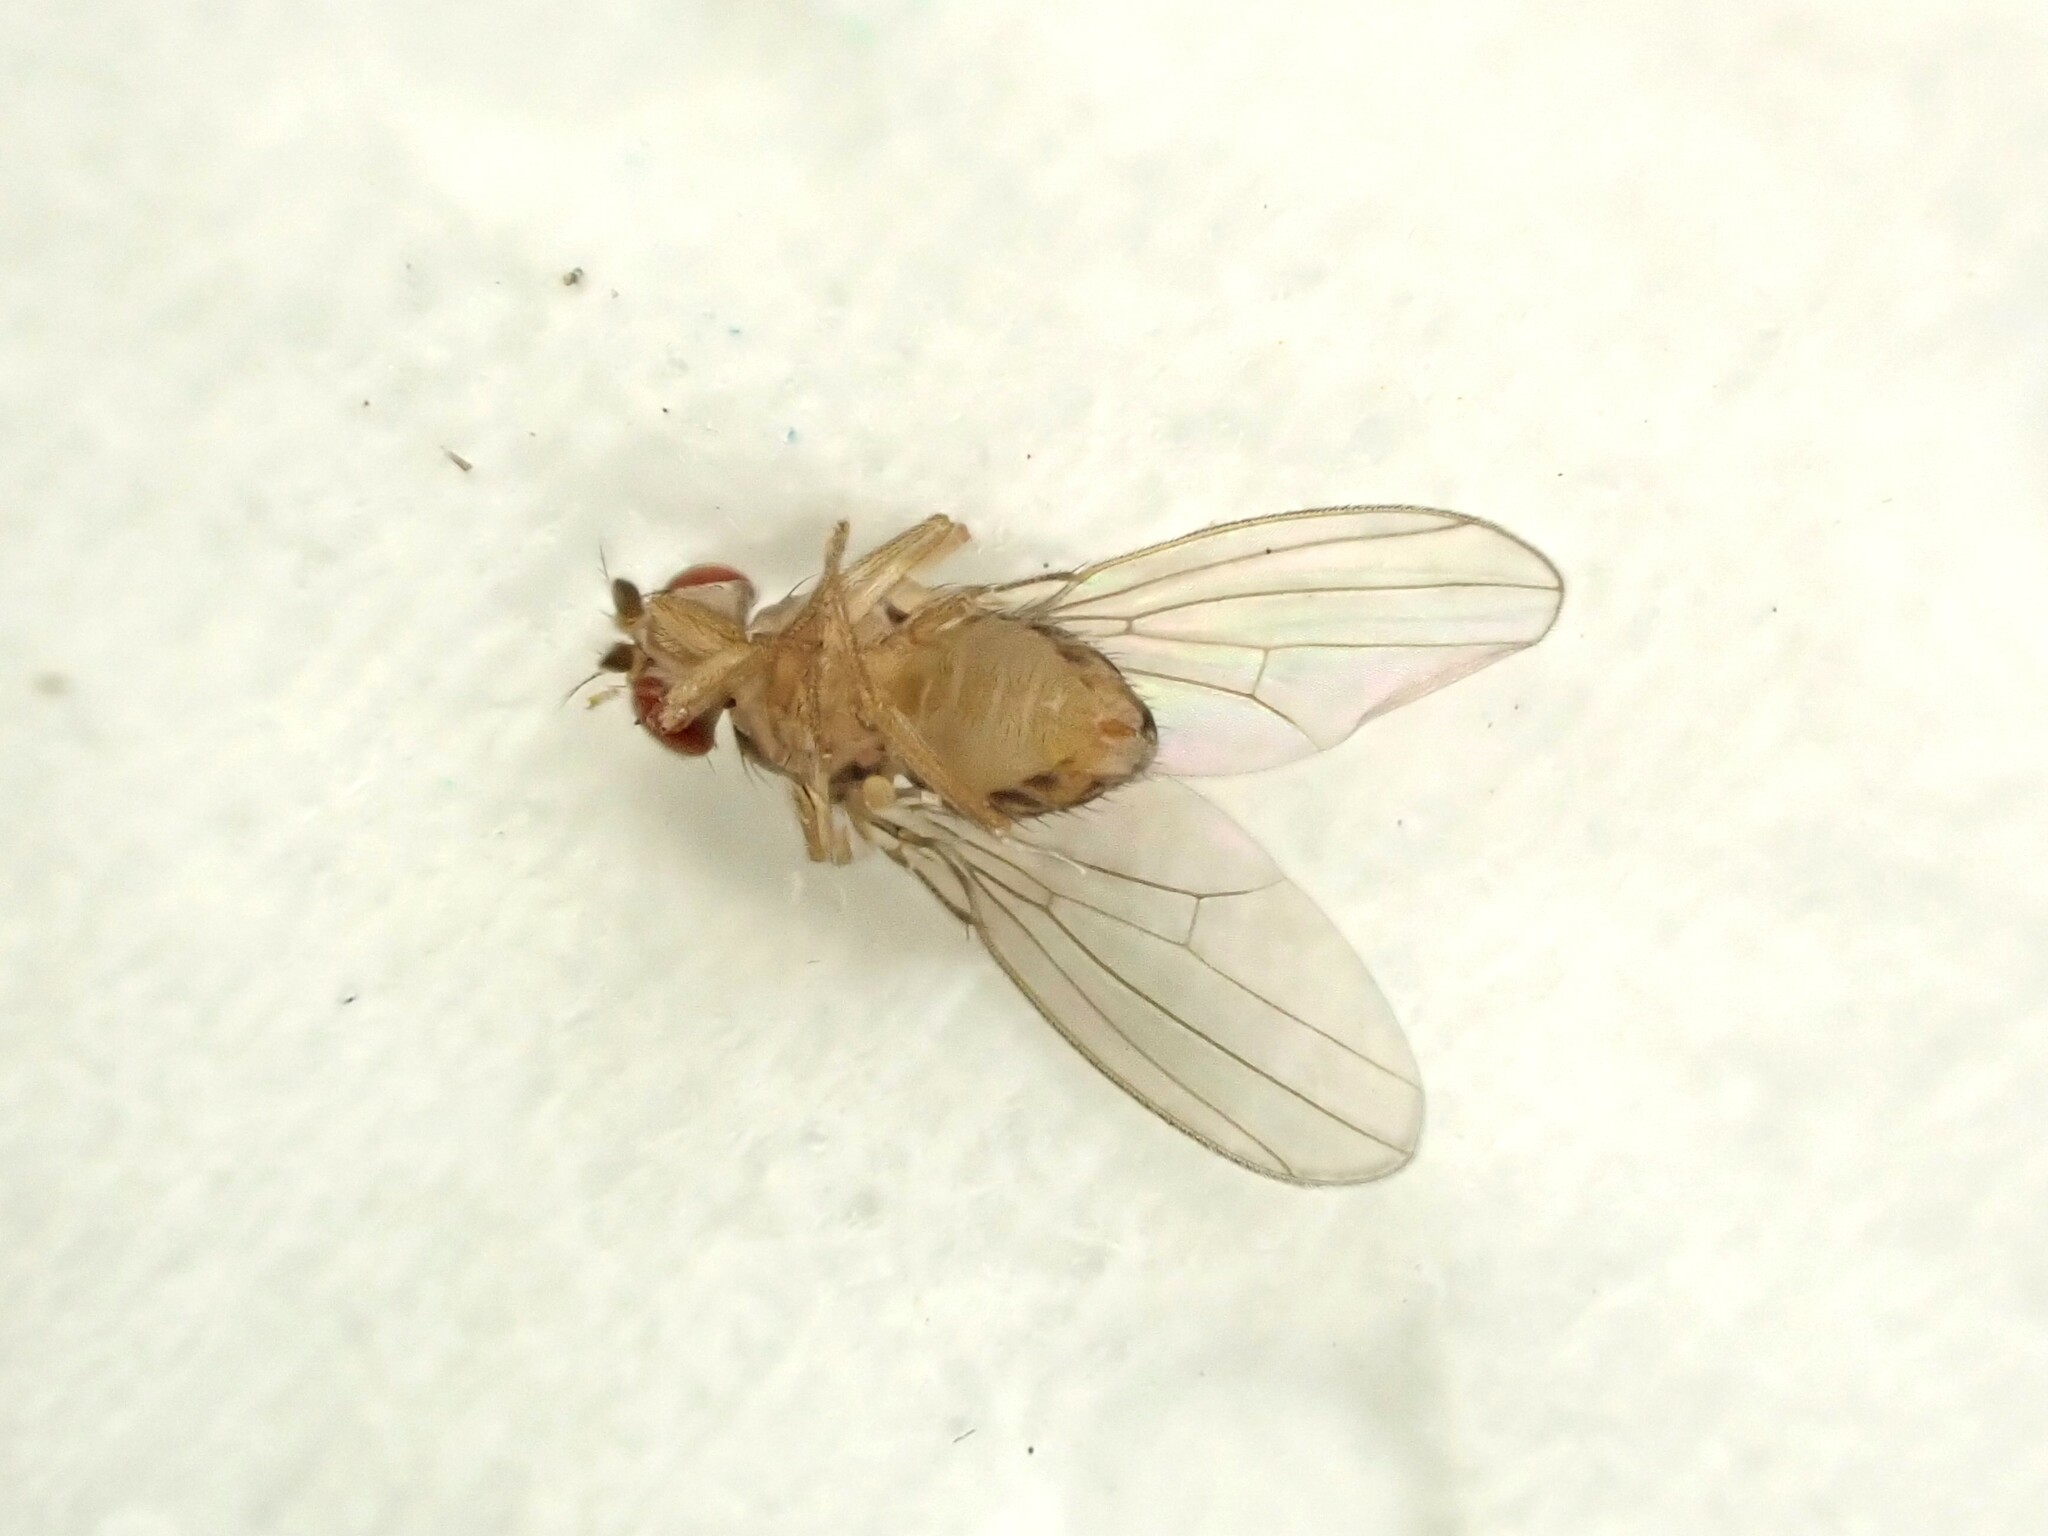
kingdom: Animalia
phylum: Arthropoda
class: Insecta
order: Diptera
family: Drosophilidae
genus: Drosophila
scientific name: Drosophila busckii
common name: Pomace fly
